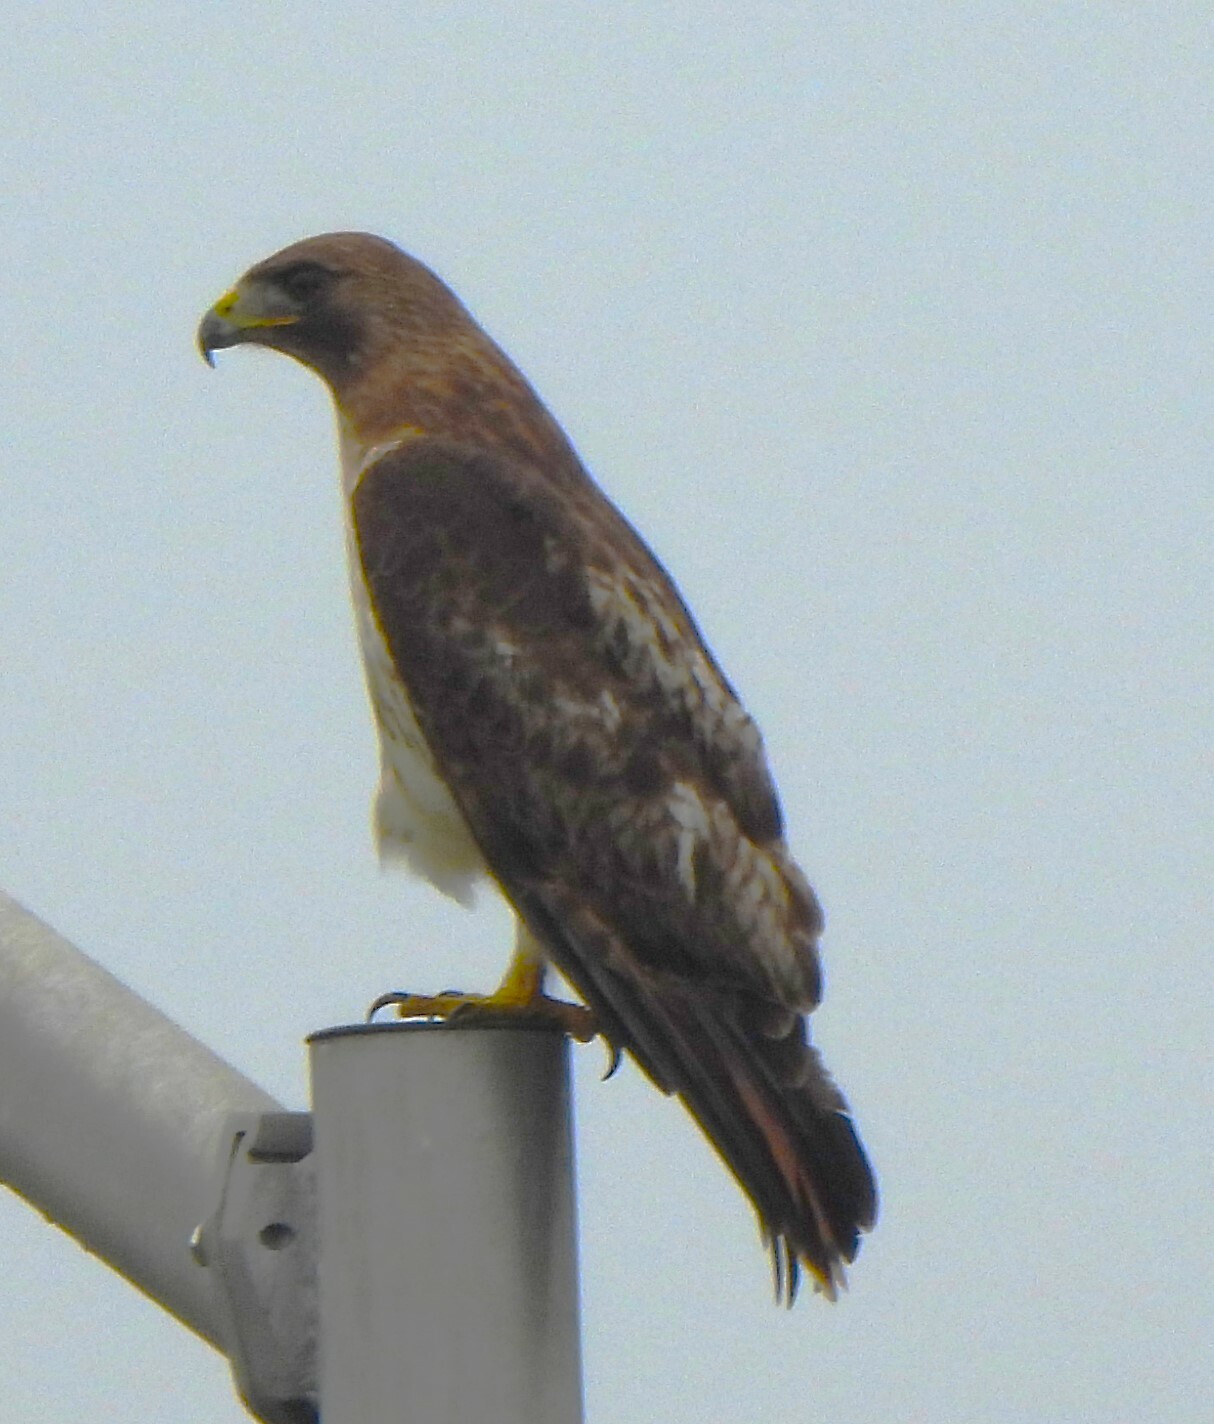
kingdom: Animalia
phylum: Chordata
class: Aves
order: Accipitriformes
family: Accipitridae
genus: Buteo
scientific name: Buteo jamaicensis
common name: Red-tailed hawk
